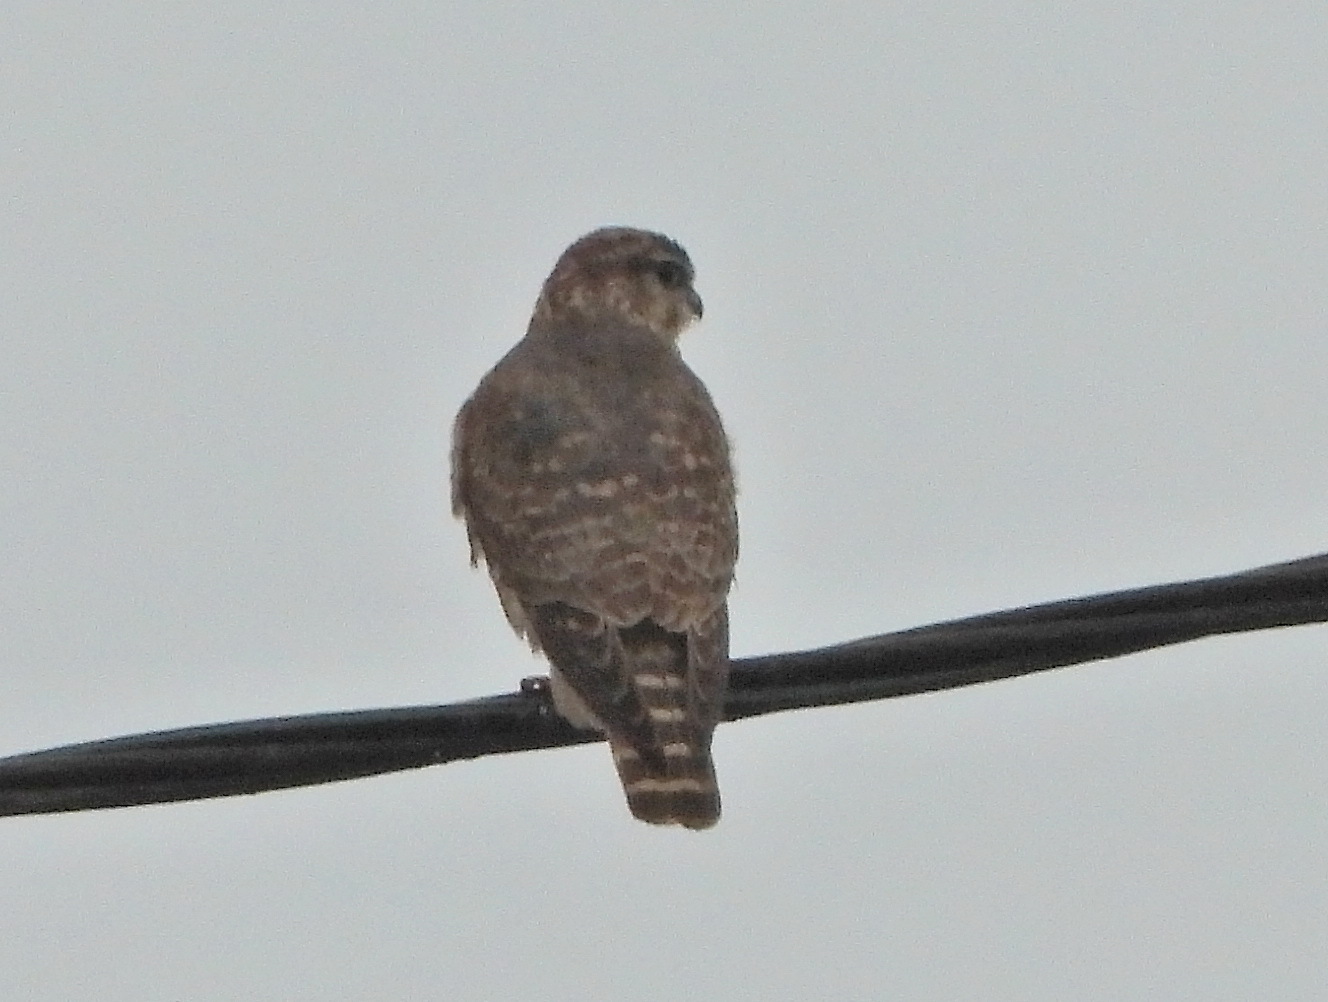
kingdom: Animalia
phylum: Chordata
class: Aves
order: Accipitriformes
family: Accipitridae
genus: Accipiter
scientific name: Accipiter nisus
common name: Eurasian sparrowhawk
